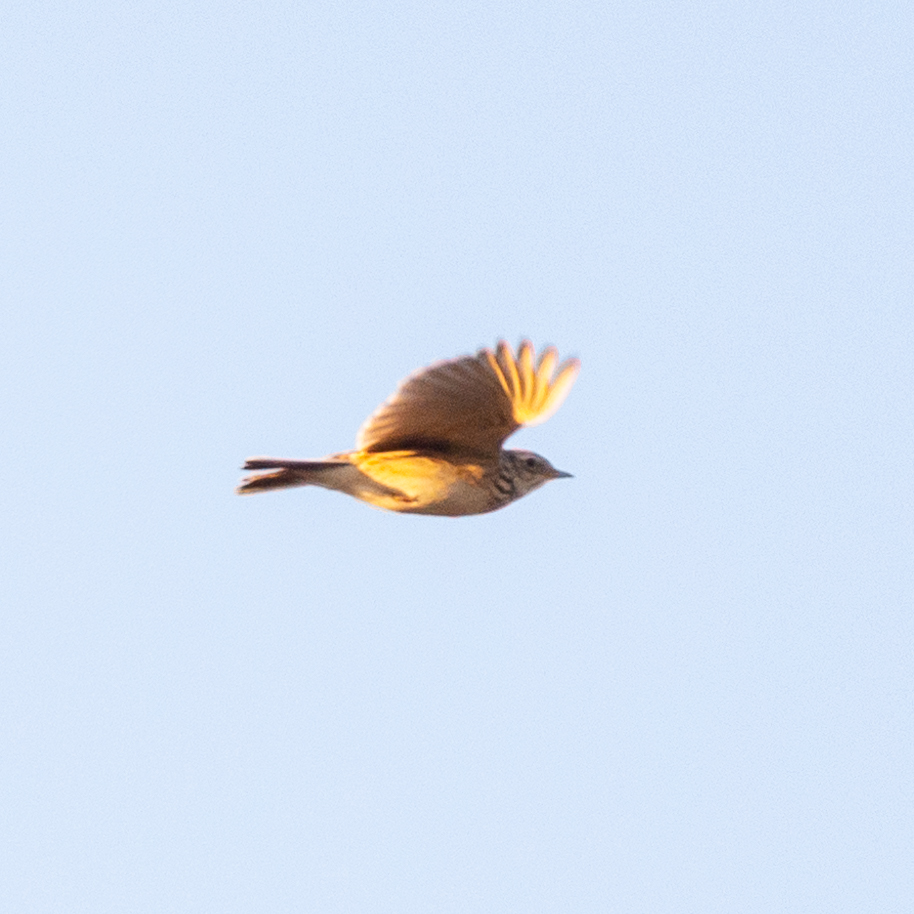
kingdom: Animalia
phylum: Chordata
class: Aves
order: Passeriformes
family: Alaudidae
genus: Alauda
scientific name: Alauda arvensis
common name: Eurasian skylark
